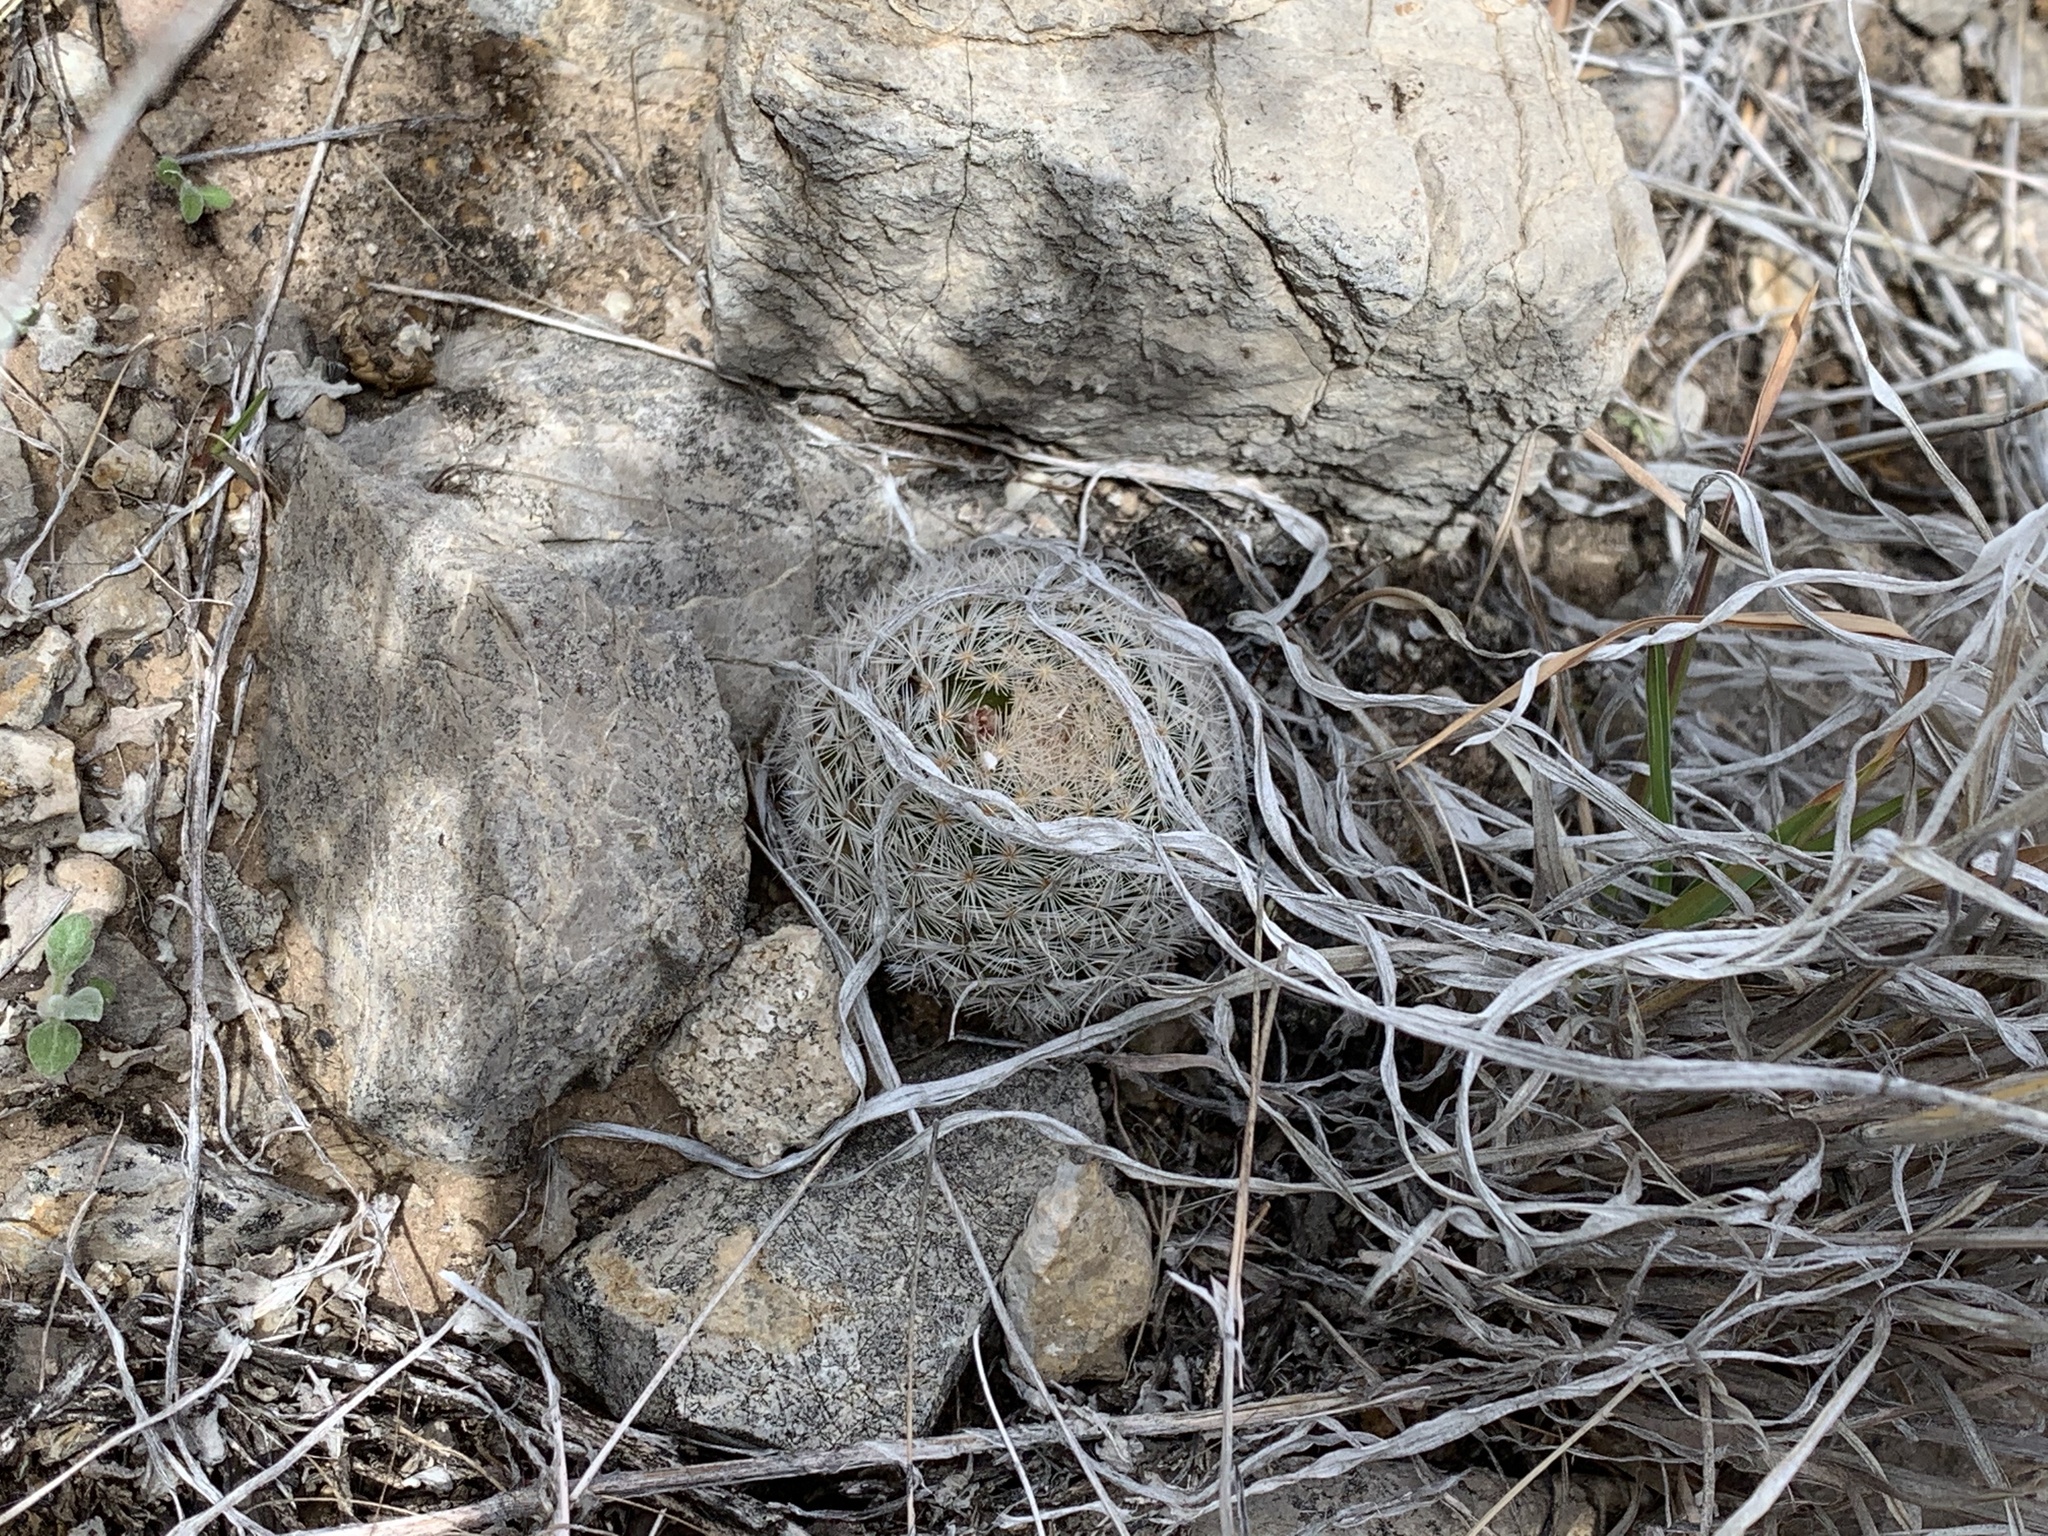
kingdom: Plantae
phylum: Tracheophyta
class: Magnoliopsida
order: Caryophyllales
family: Cactaceae
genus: Mammillaria
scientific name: Mammillaria lasiacantha
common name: Lace-spine nipple cactus
